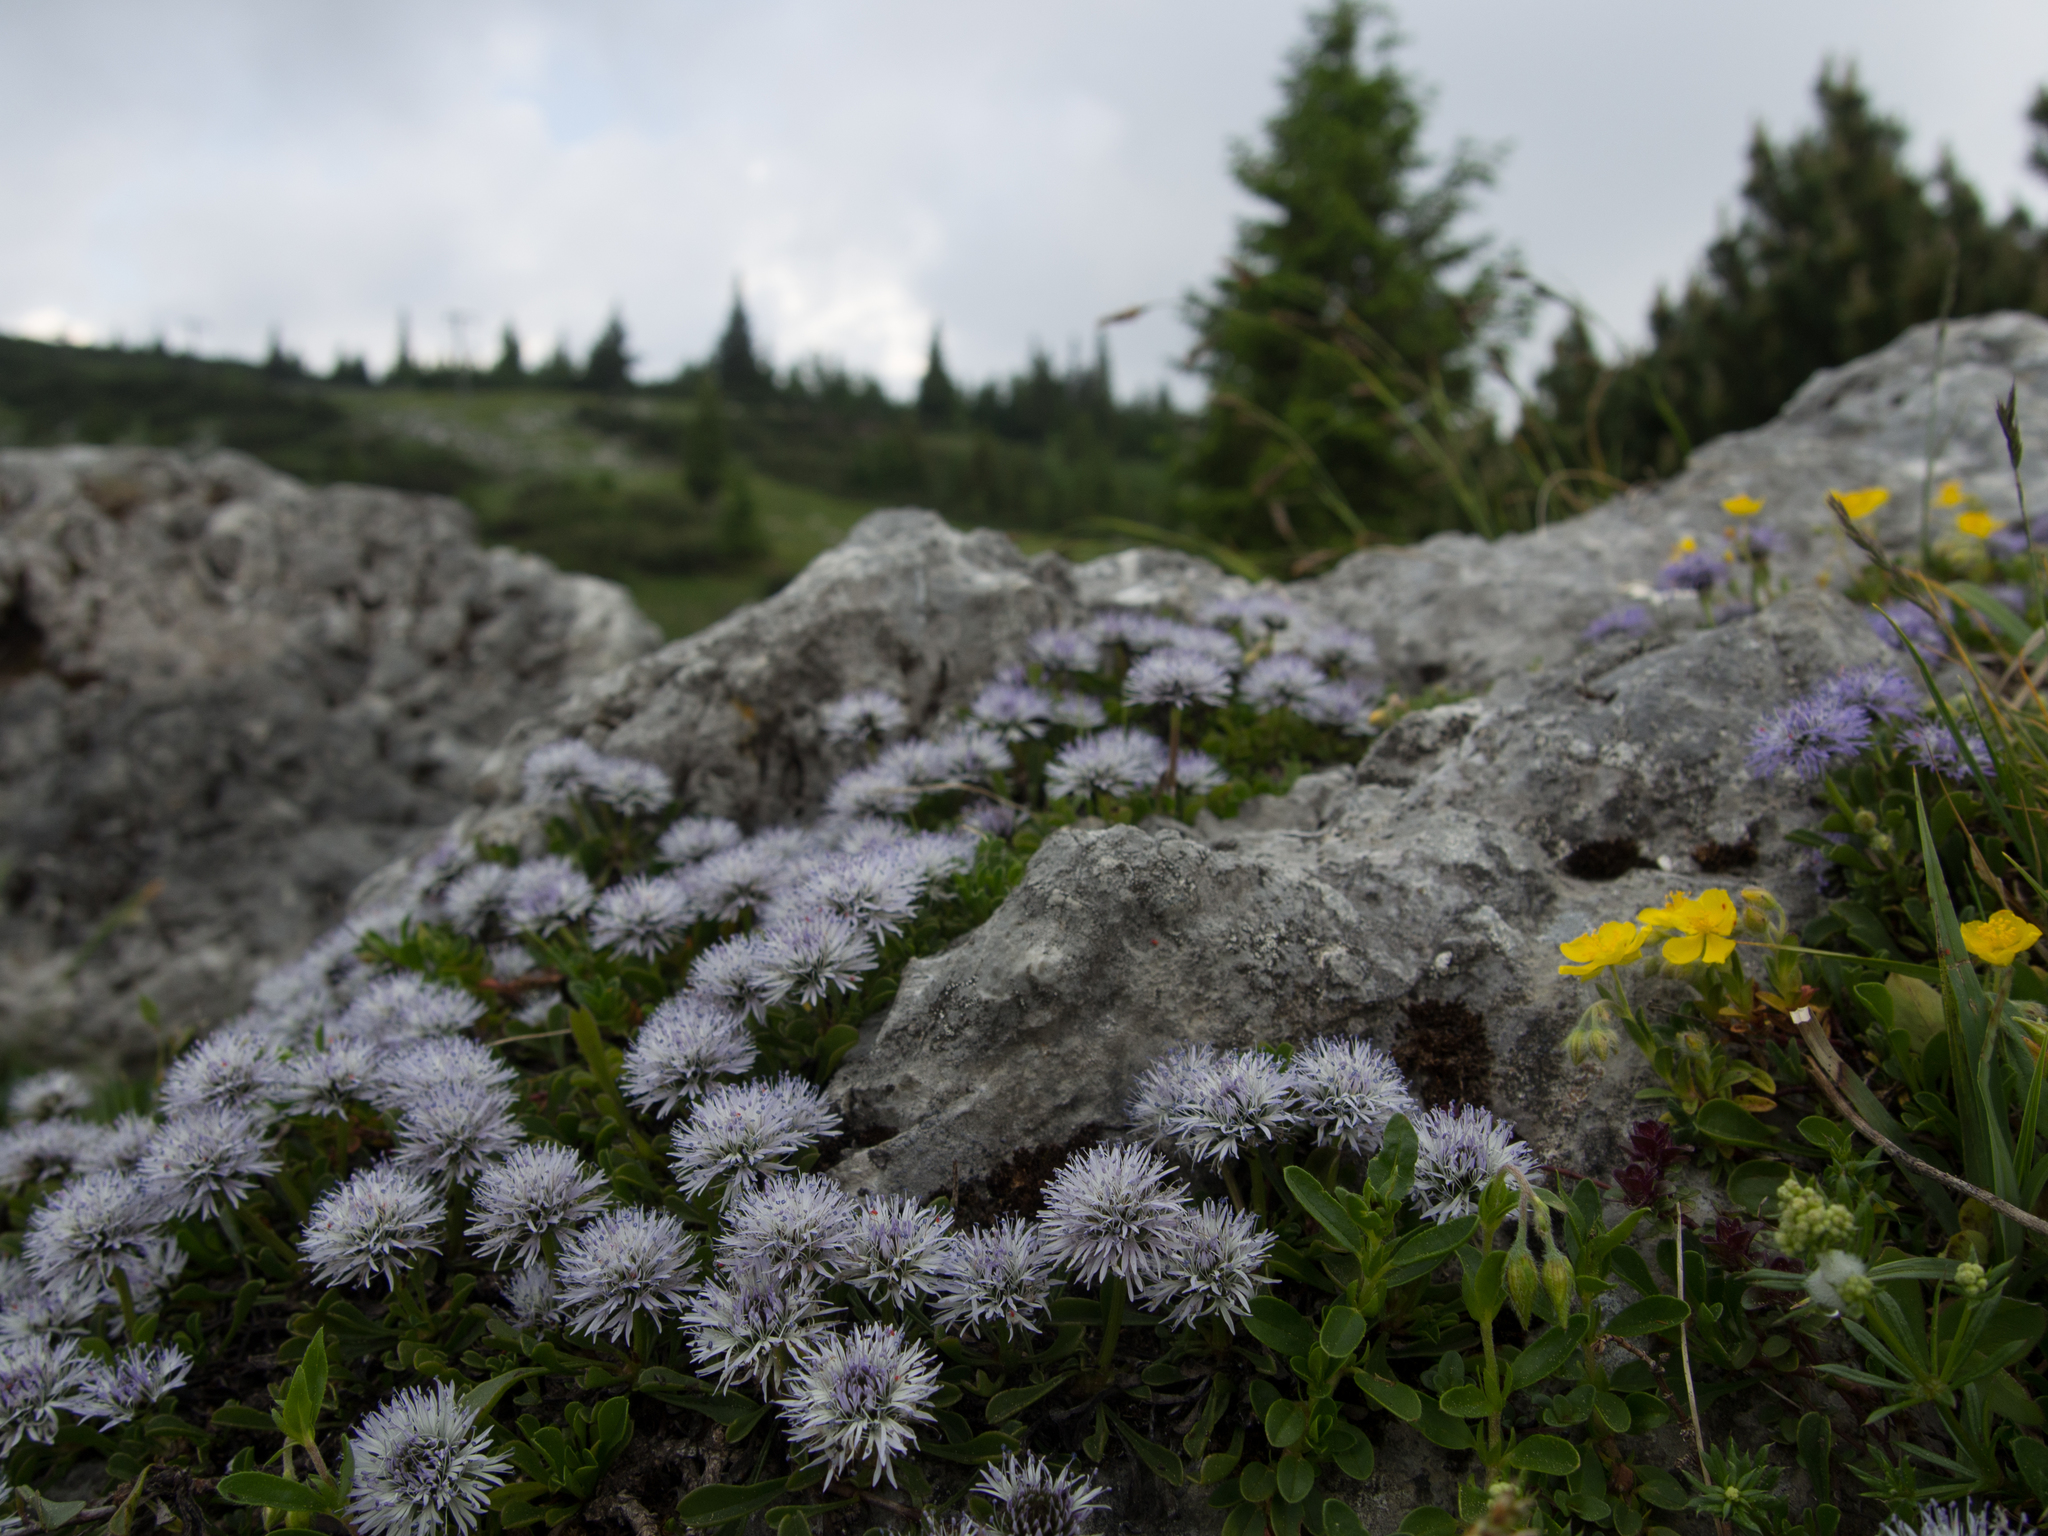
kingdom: Plantae
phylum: Tracheophyta
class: Magnoliopsida
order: Lamiales
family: Plantaginaceae
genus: Globularia
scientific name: Globularia cordifolia
